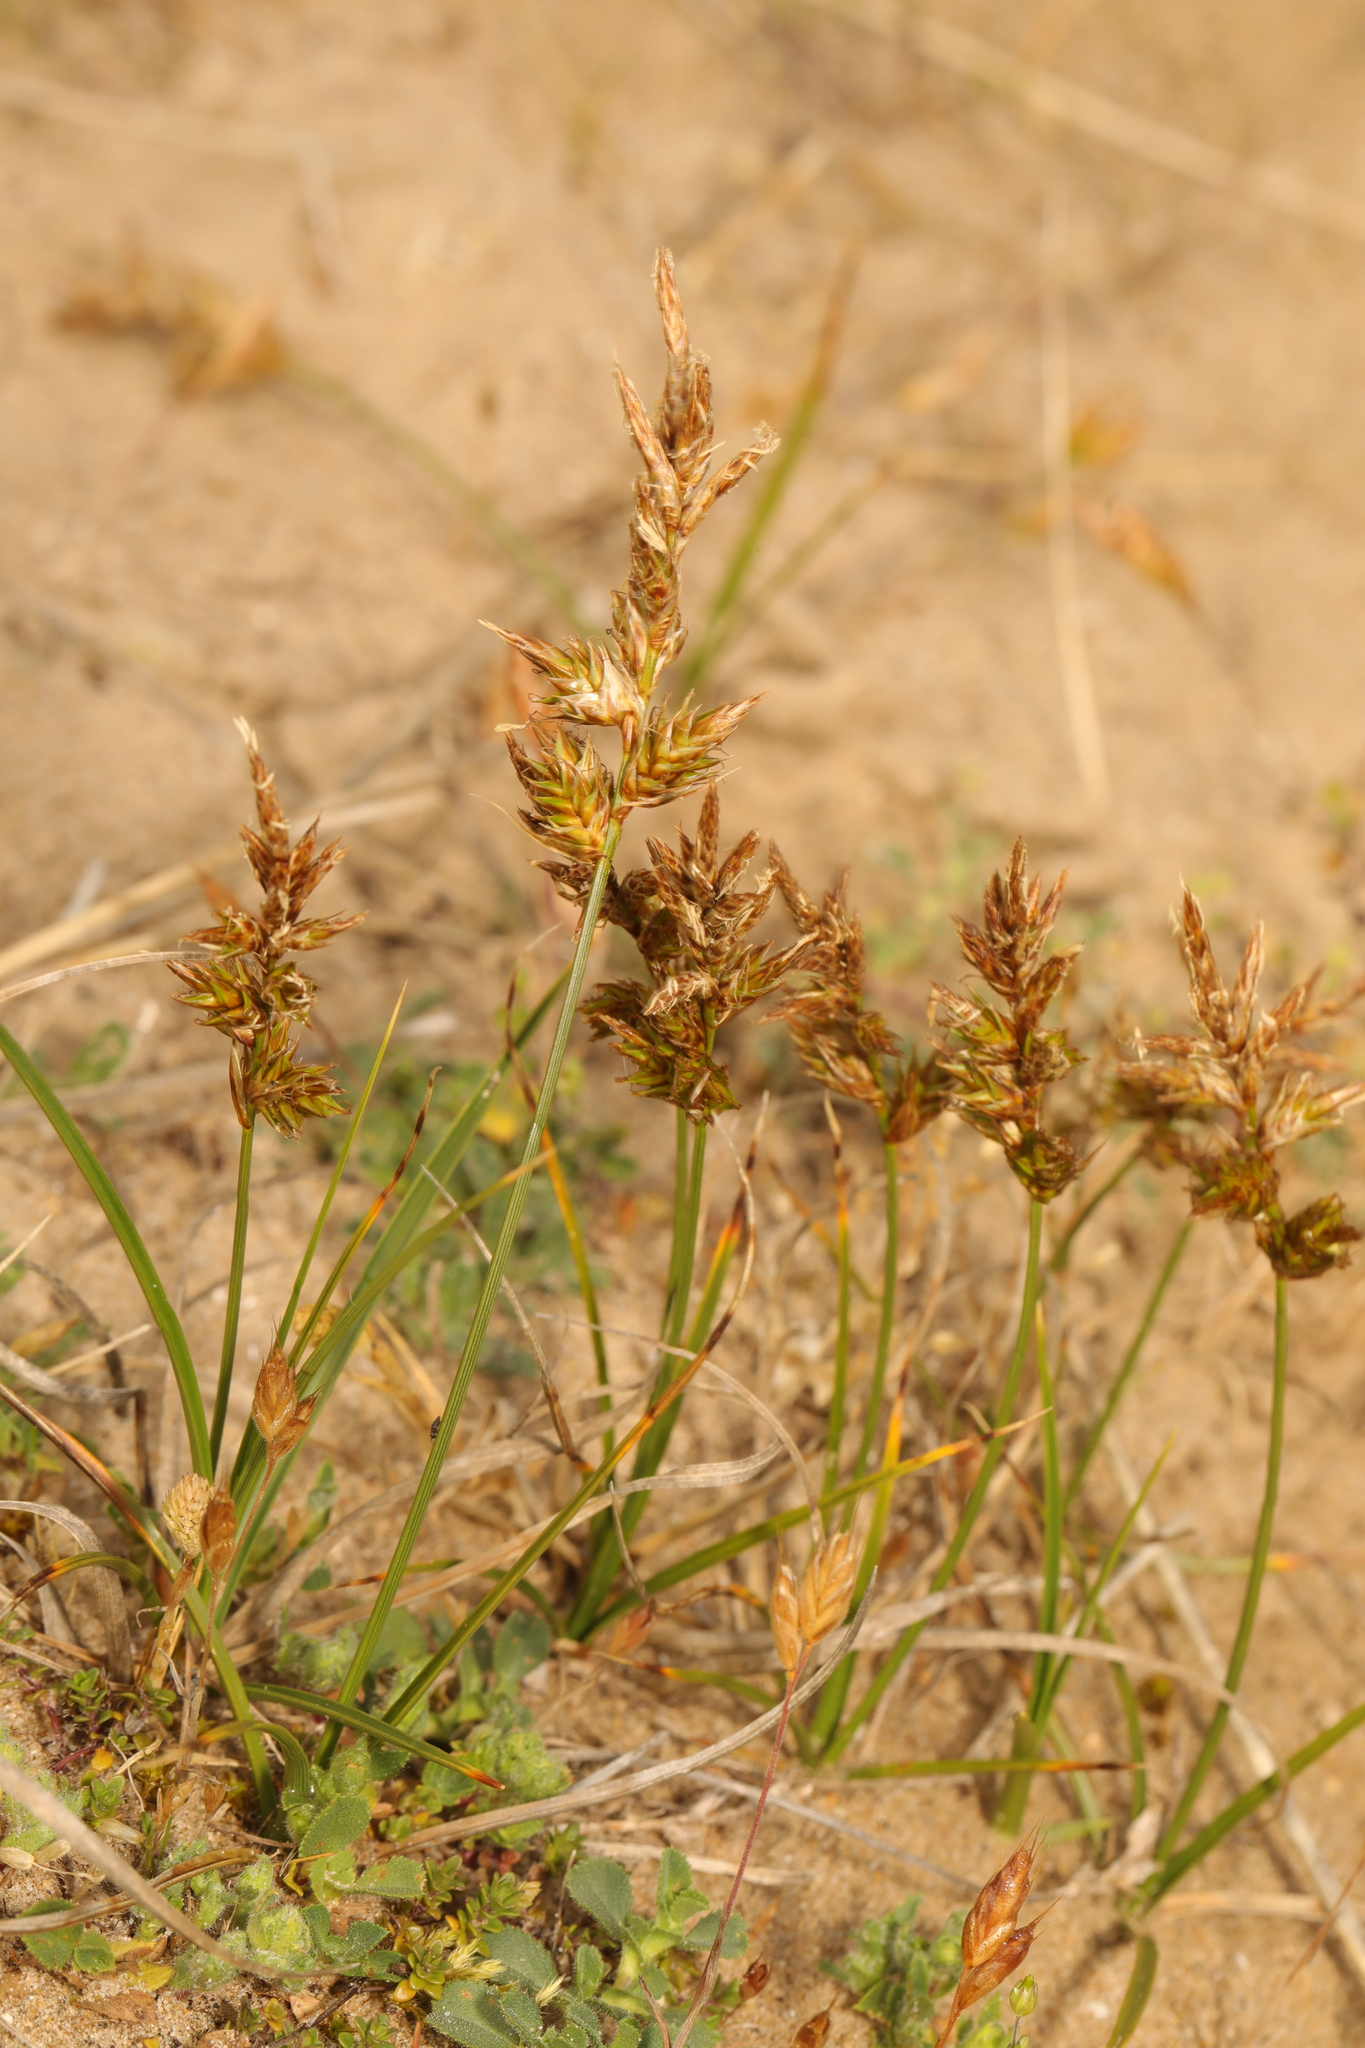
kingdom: Plantae
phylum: Tracheophyta
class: Liliopsida
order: Poales
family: Cyperaceae
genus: Carex
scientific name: Carex arenaria
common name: Sand sedge
